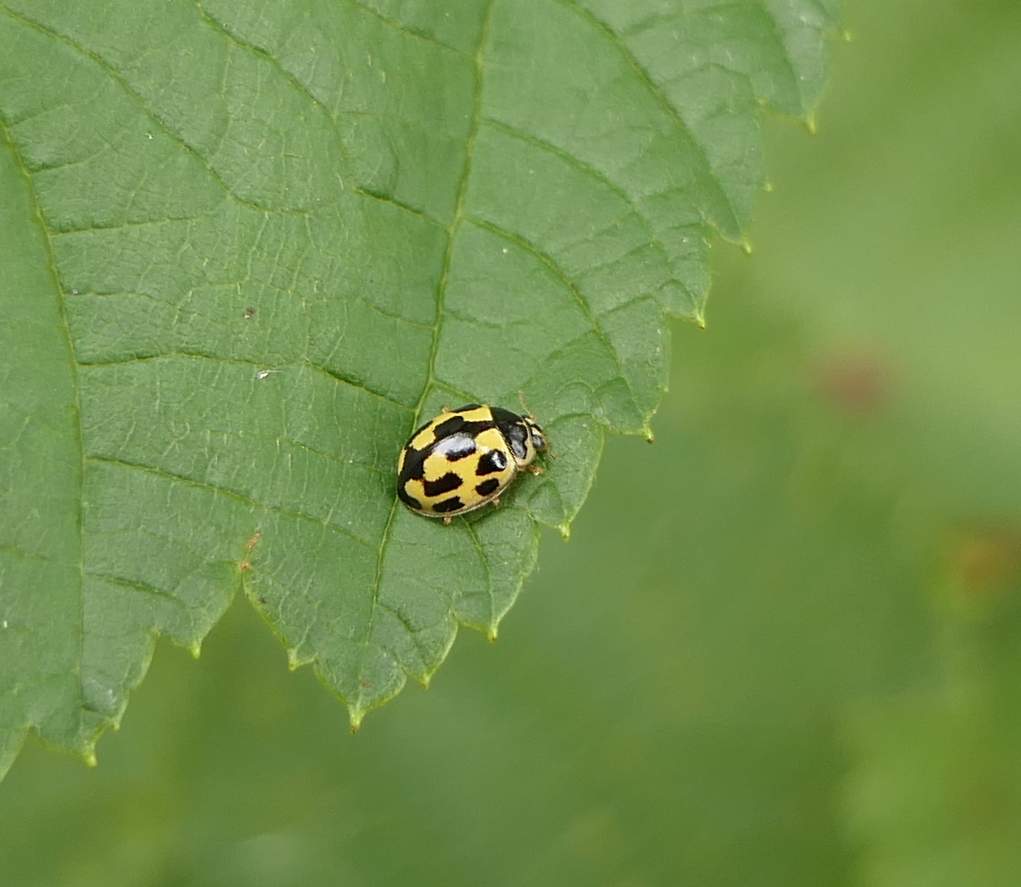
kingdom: Animalia
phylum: Arthropoda
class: Insecta
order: Coleoptera
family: Coccinellidae
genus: Propylaea
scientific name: Propylaea quatuordecimpunctata
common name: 14-spotted ladybird beetle
